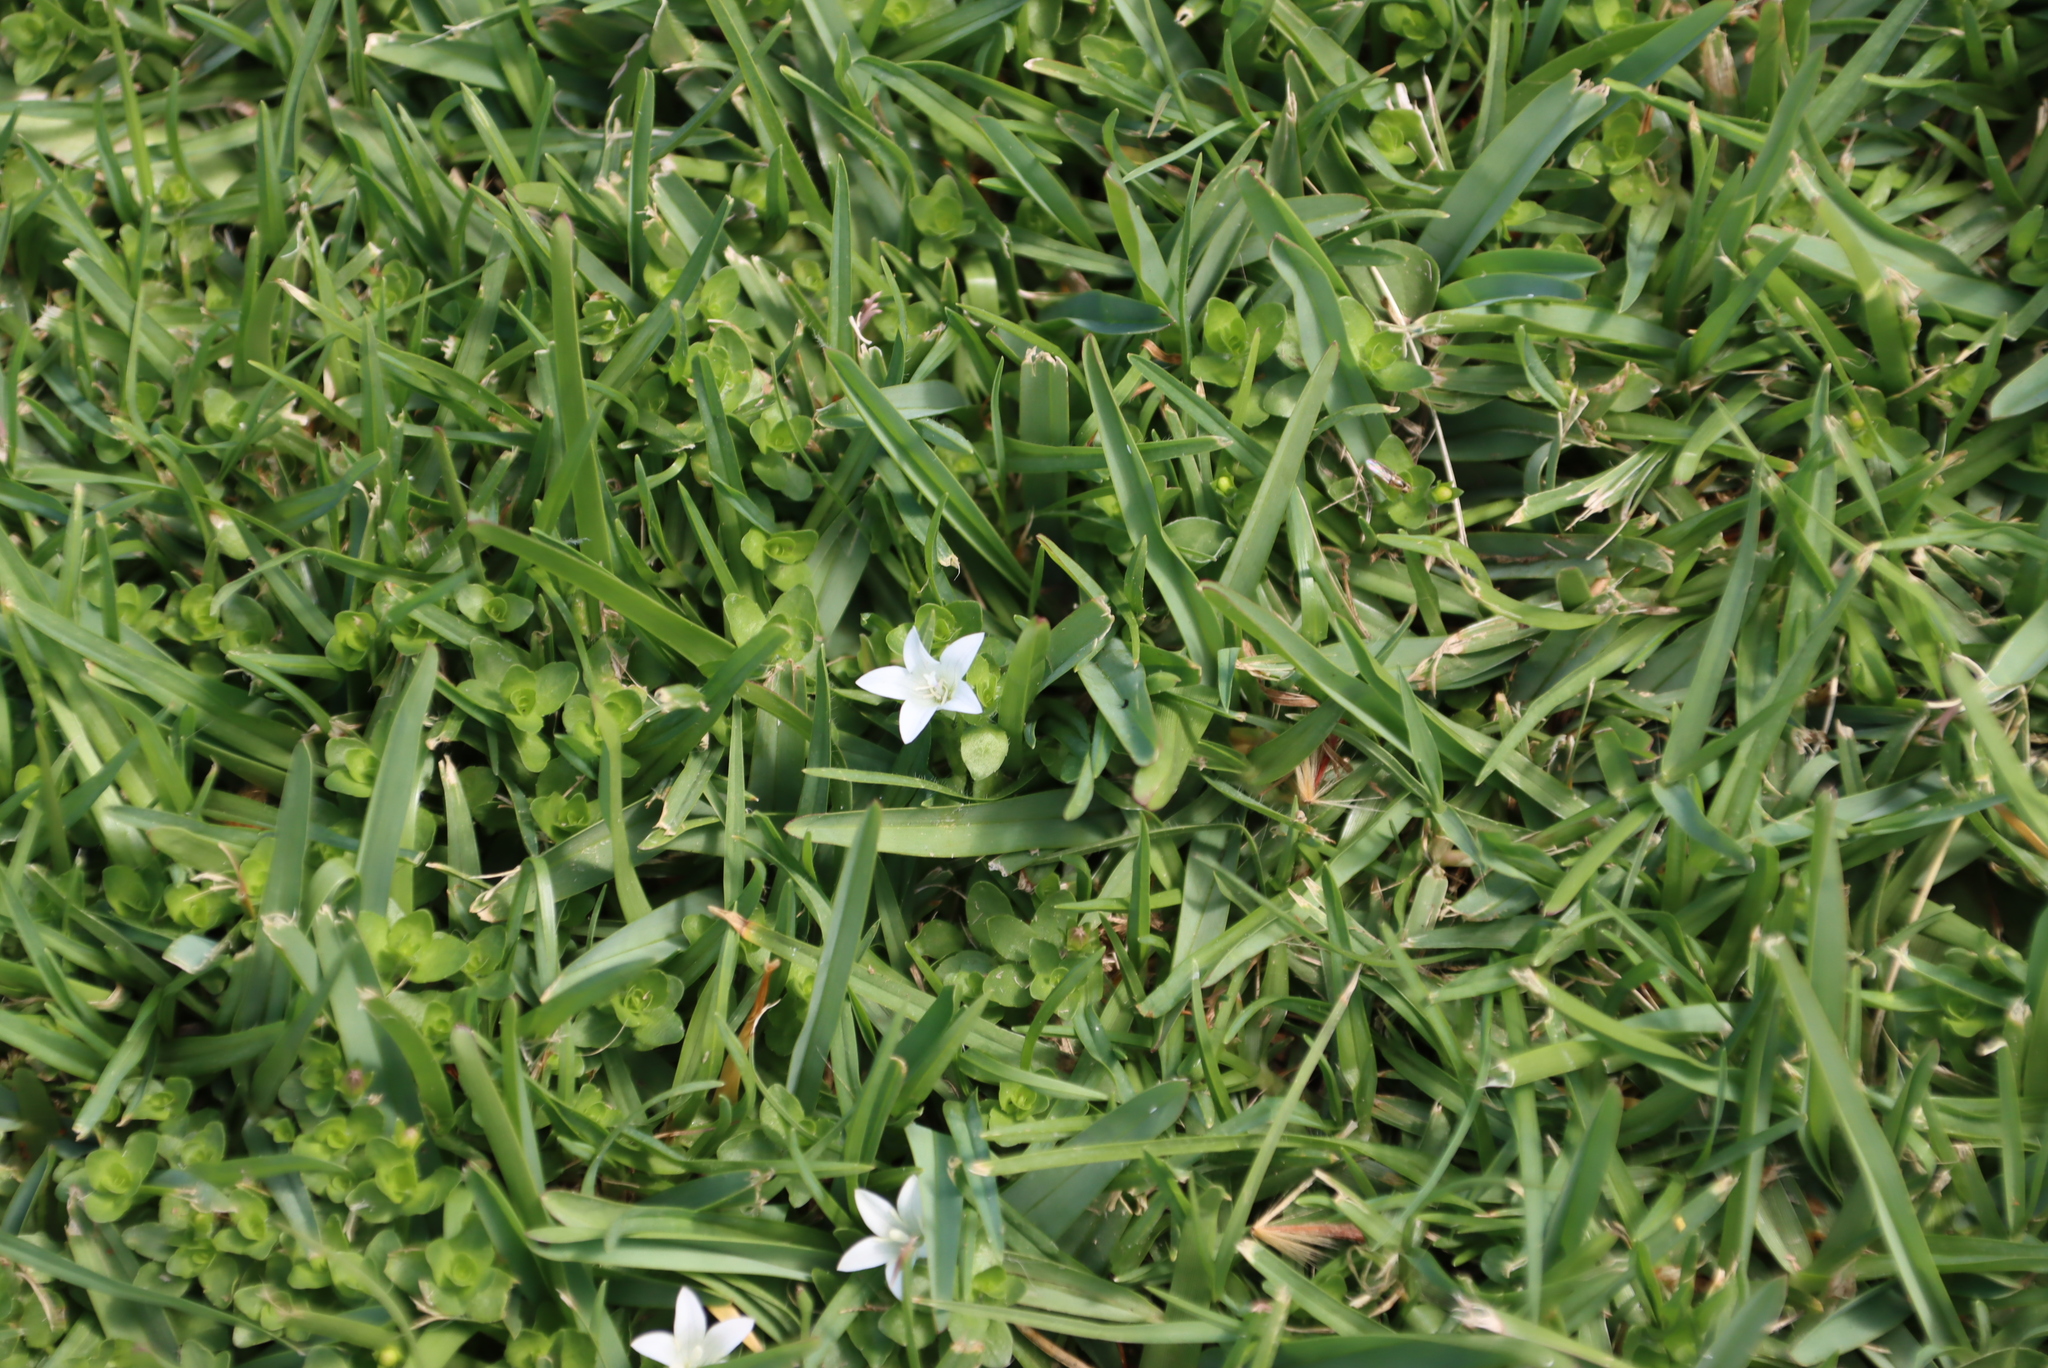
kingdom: Plantae
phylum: Tracheophyta
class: Magnoliopsida
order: Asterales
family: Campanulaceae
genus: Wahlenbergia
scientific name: Wahlenbergia procumbens
